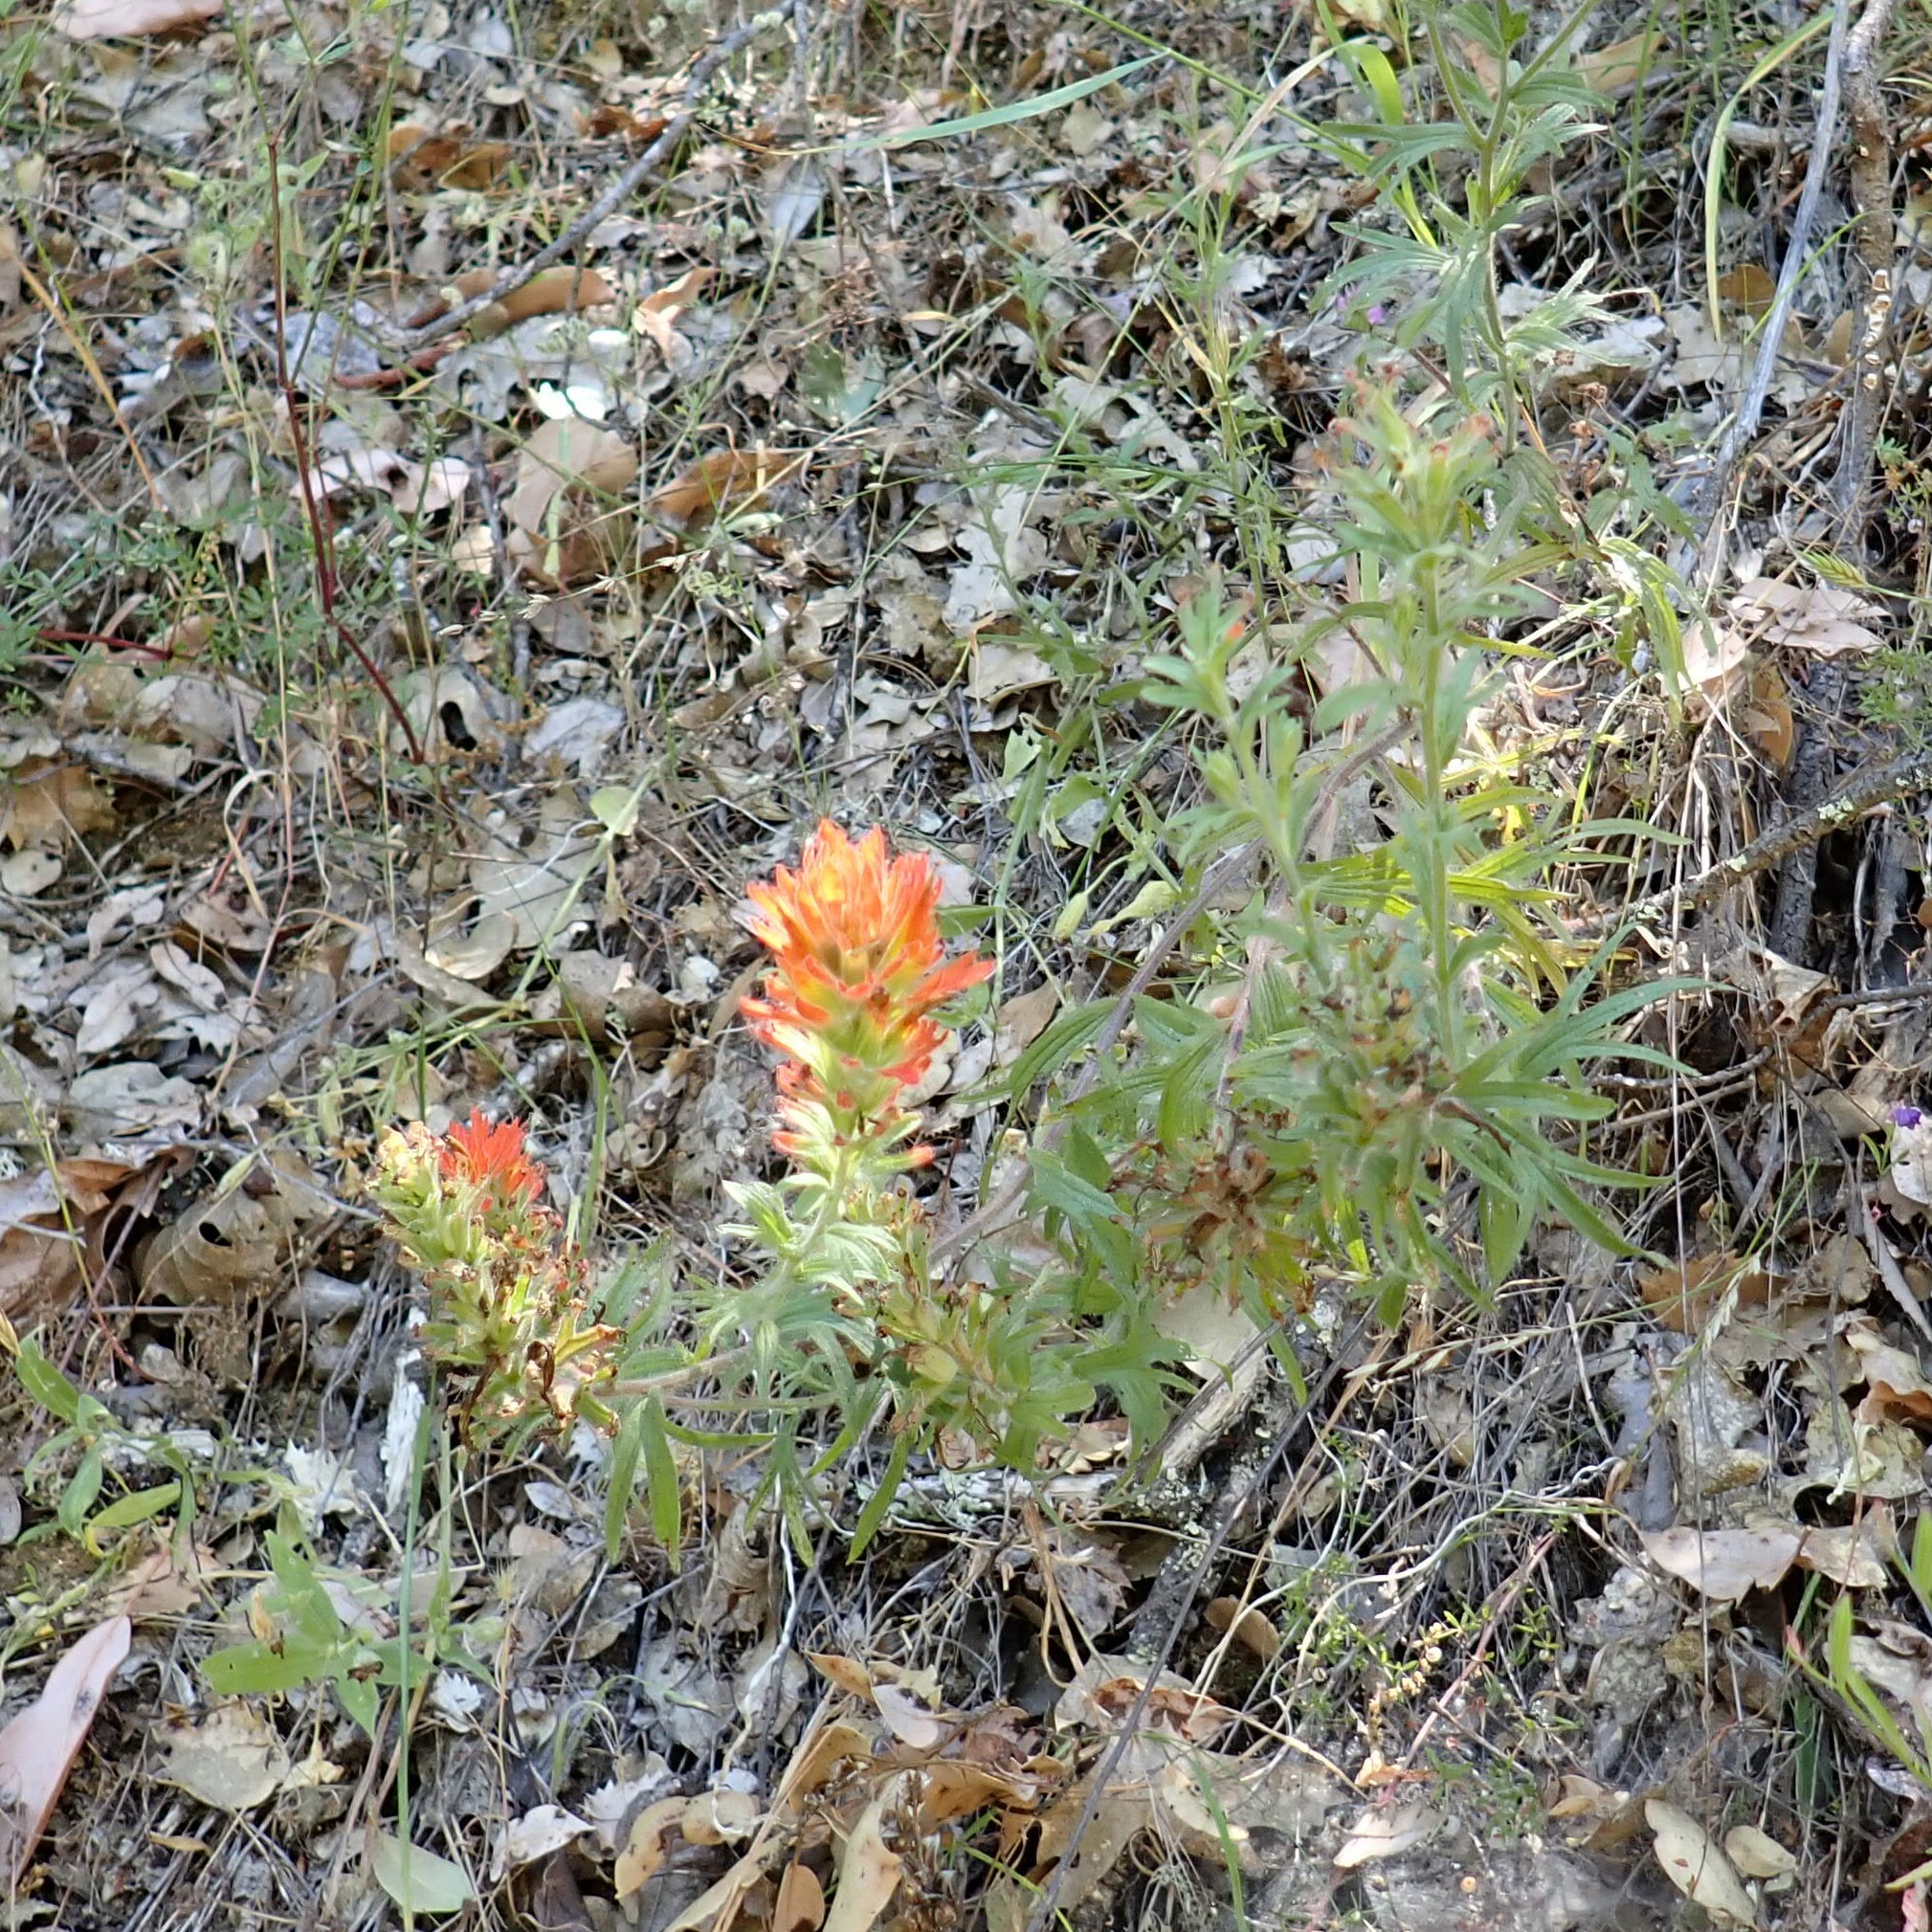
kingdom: Plantae
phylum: Tracheophyta
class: Magnoliopsida
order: Lamiales
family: Orobanchaceae
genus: Castilleja
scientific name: Castilleja applegatei
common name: Wavy-leaf paintbrush
